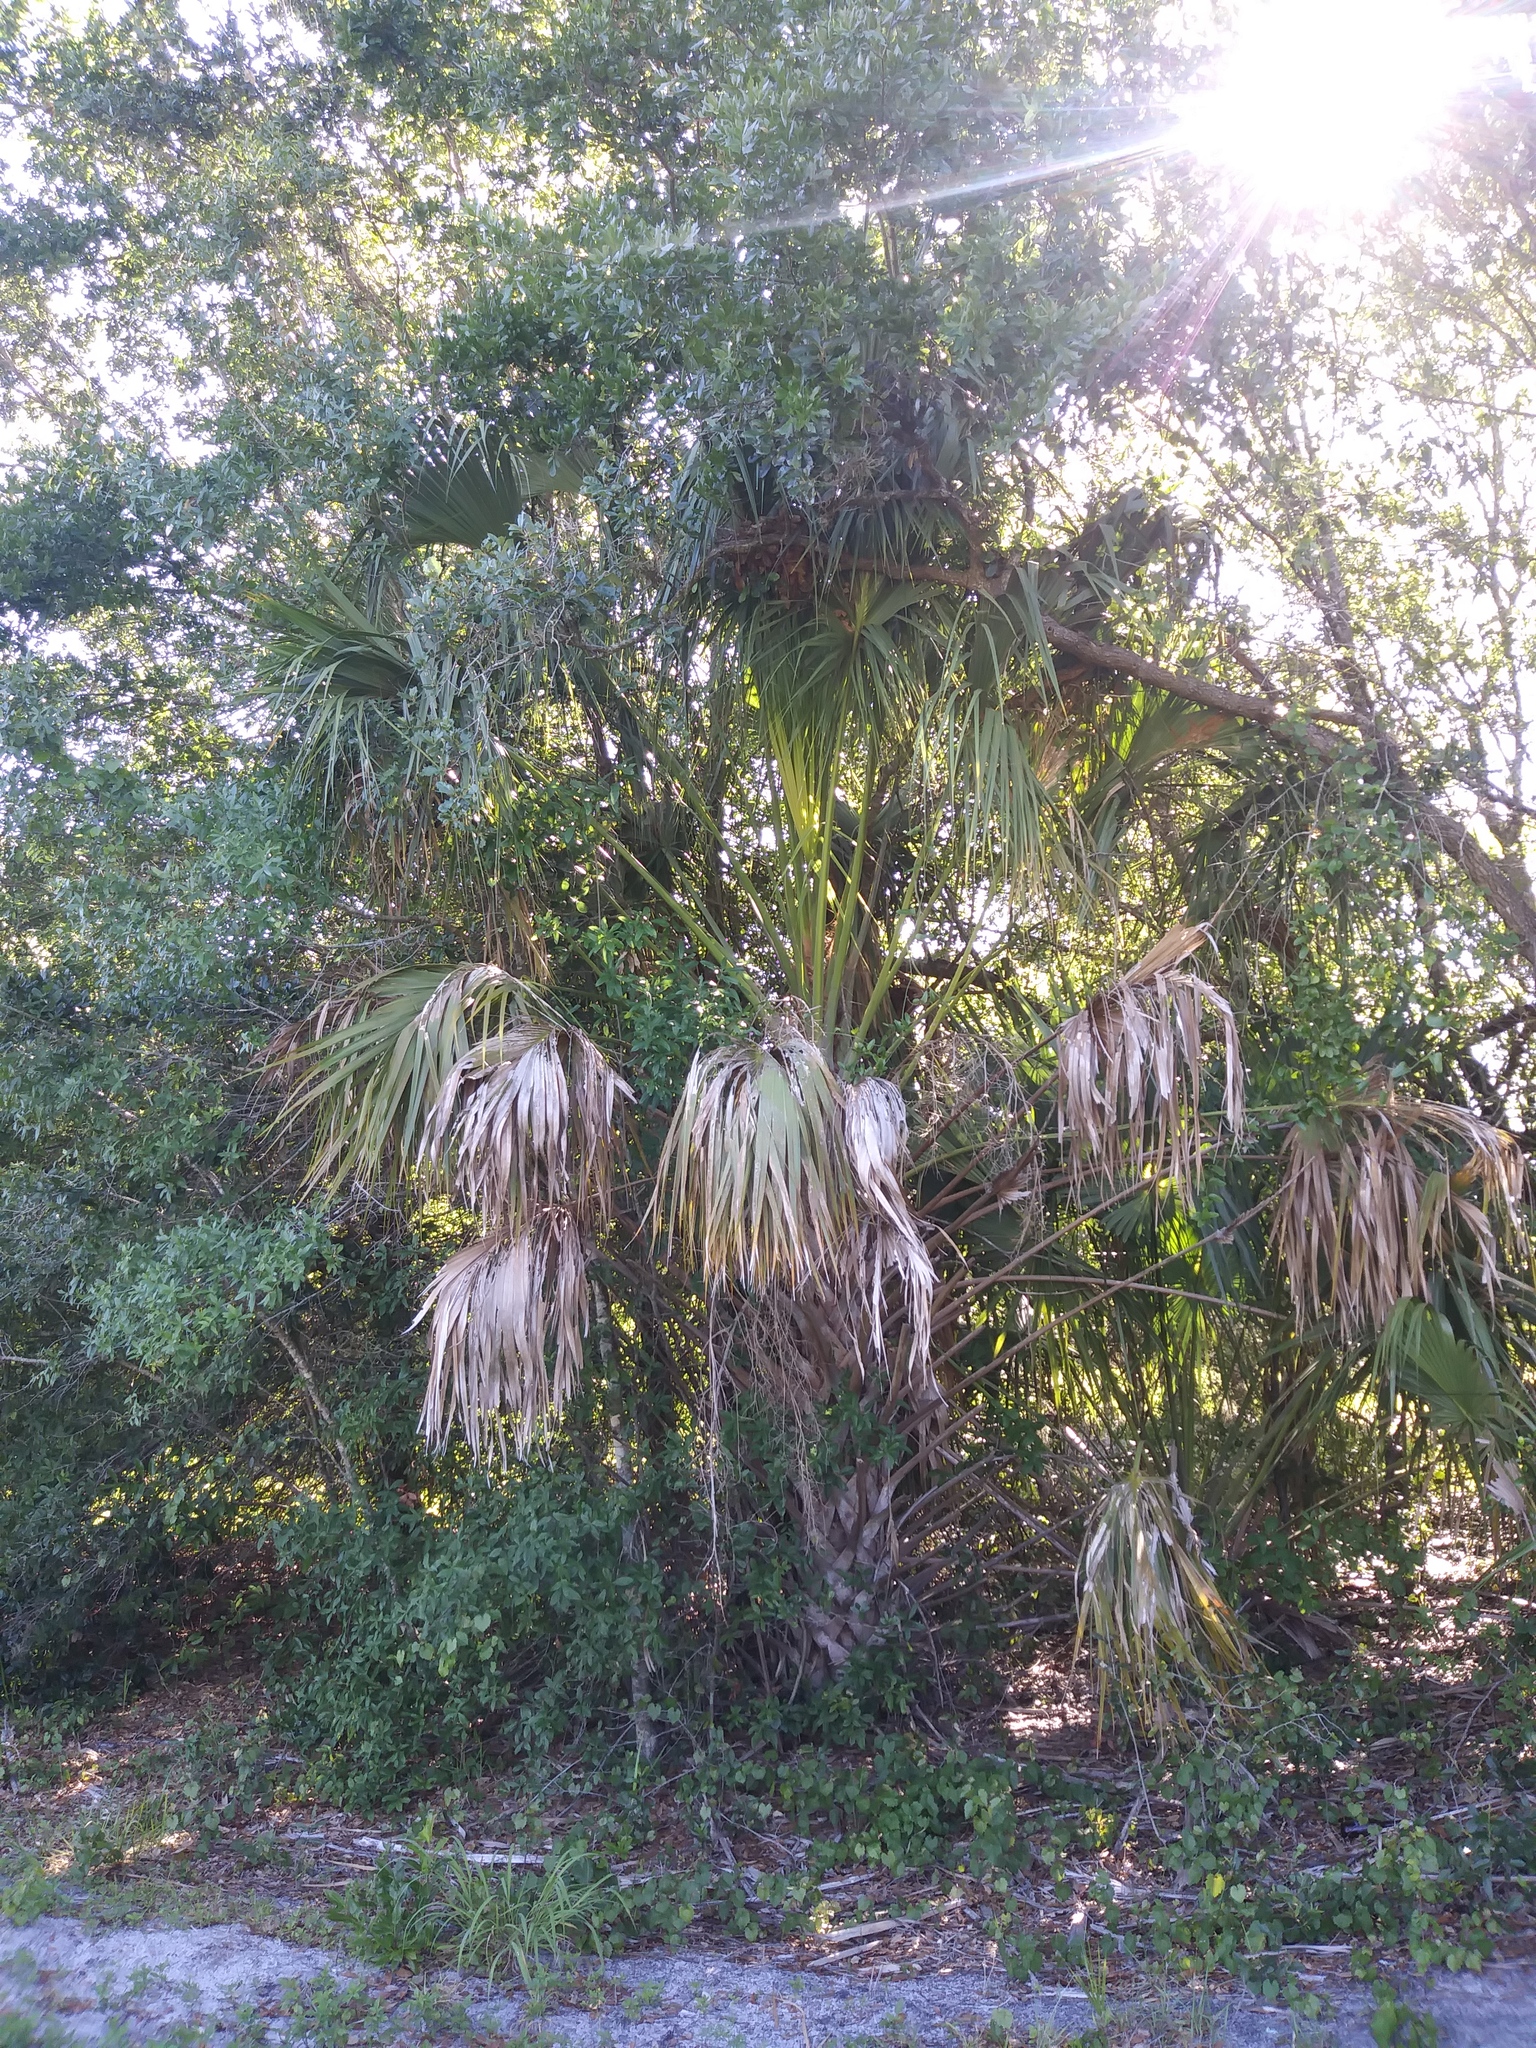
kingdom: Plantae
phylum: Tracheophyta
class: Liliopsida
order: Arecales
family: Arecaceae
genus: Sabal
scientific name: Sabal palmetto
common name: Blue palmetto
